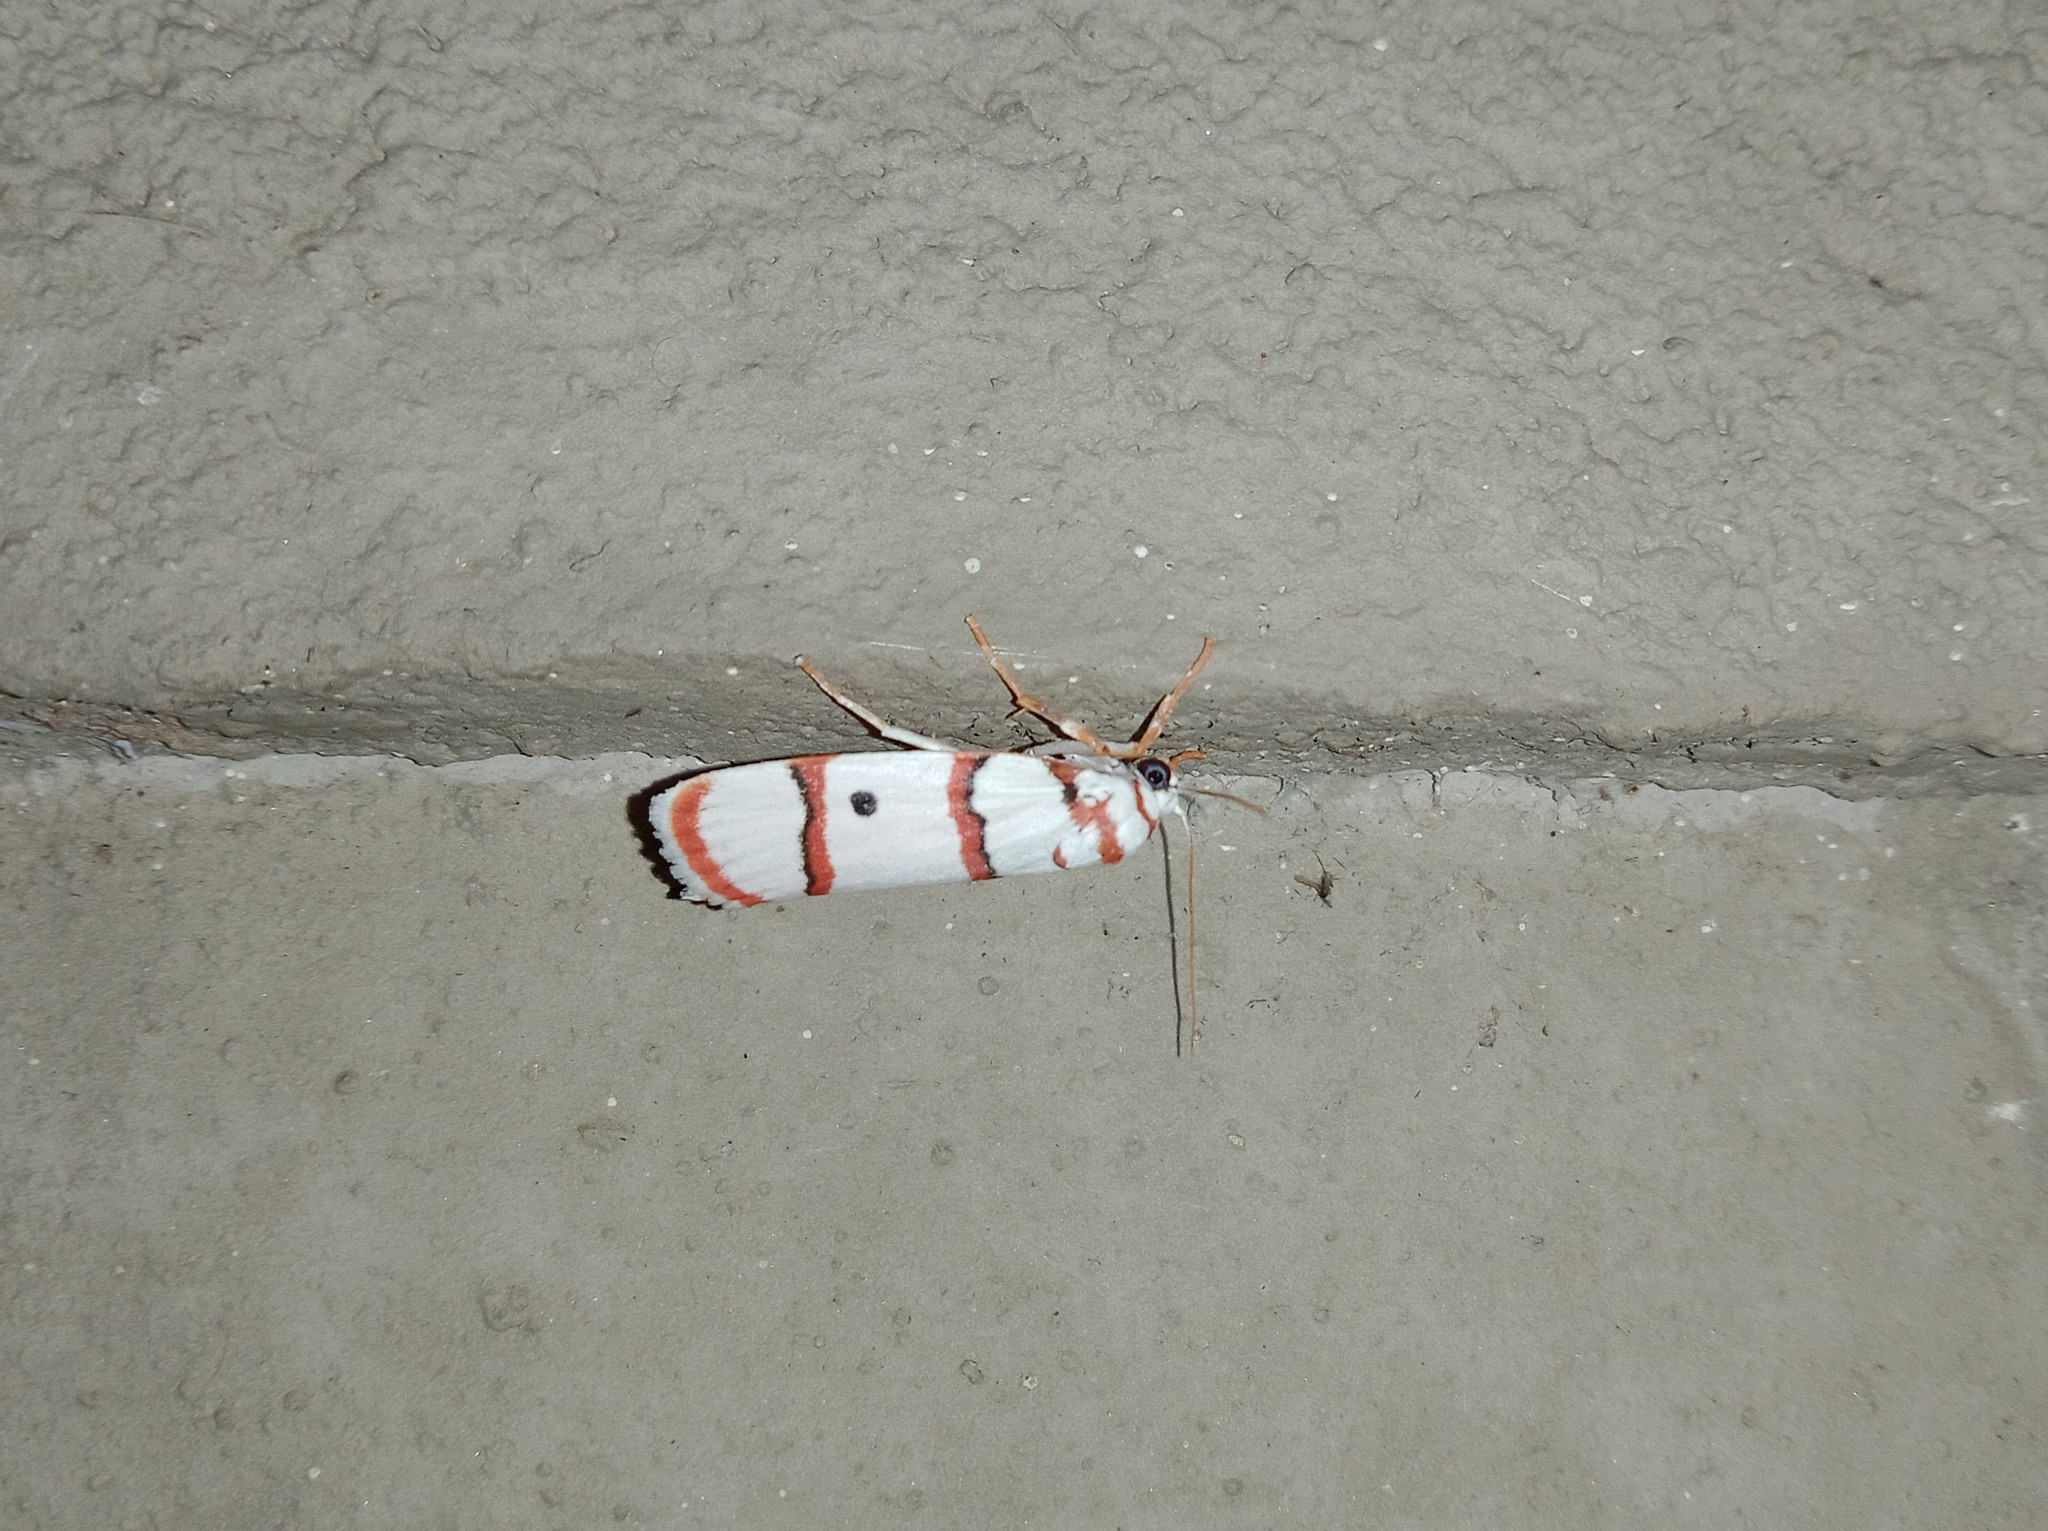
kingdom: Animalia
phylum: Arthropoda
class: Insecta
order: Lepidoptera
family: Erebidae
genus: Cyana
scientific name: Cyana peregrina
